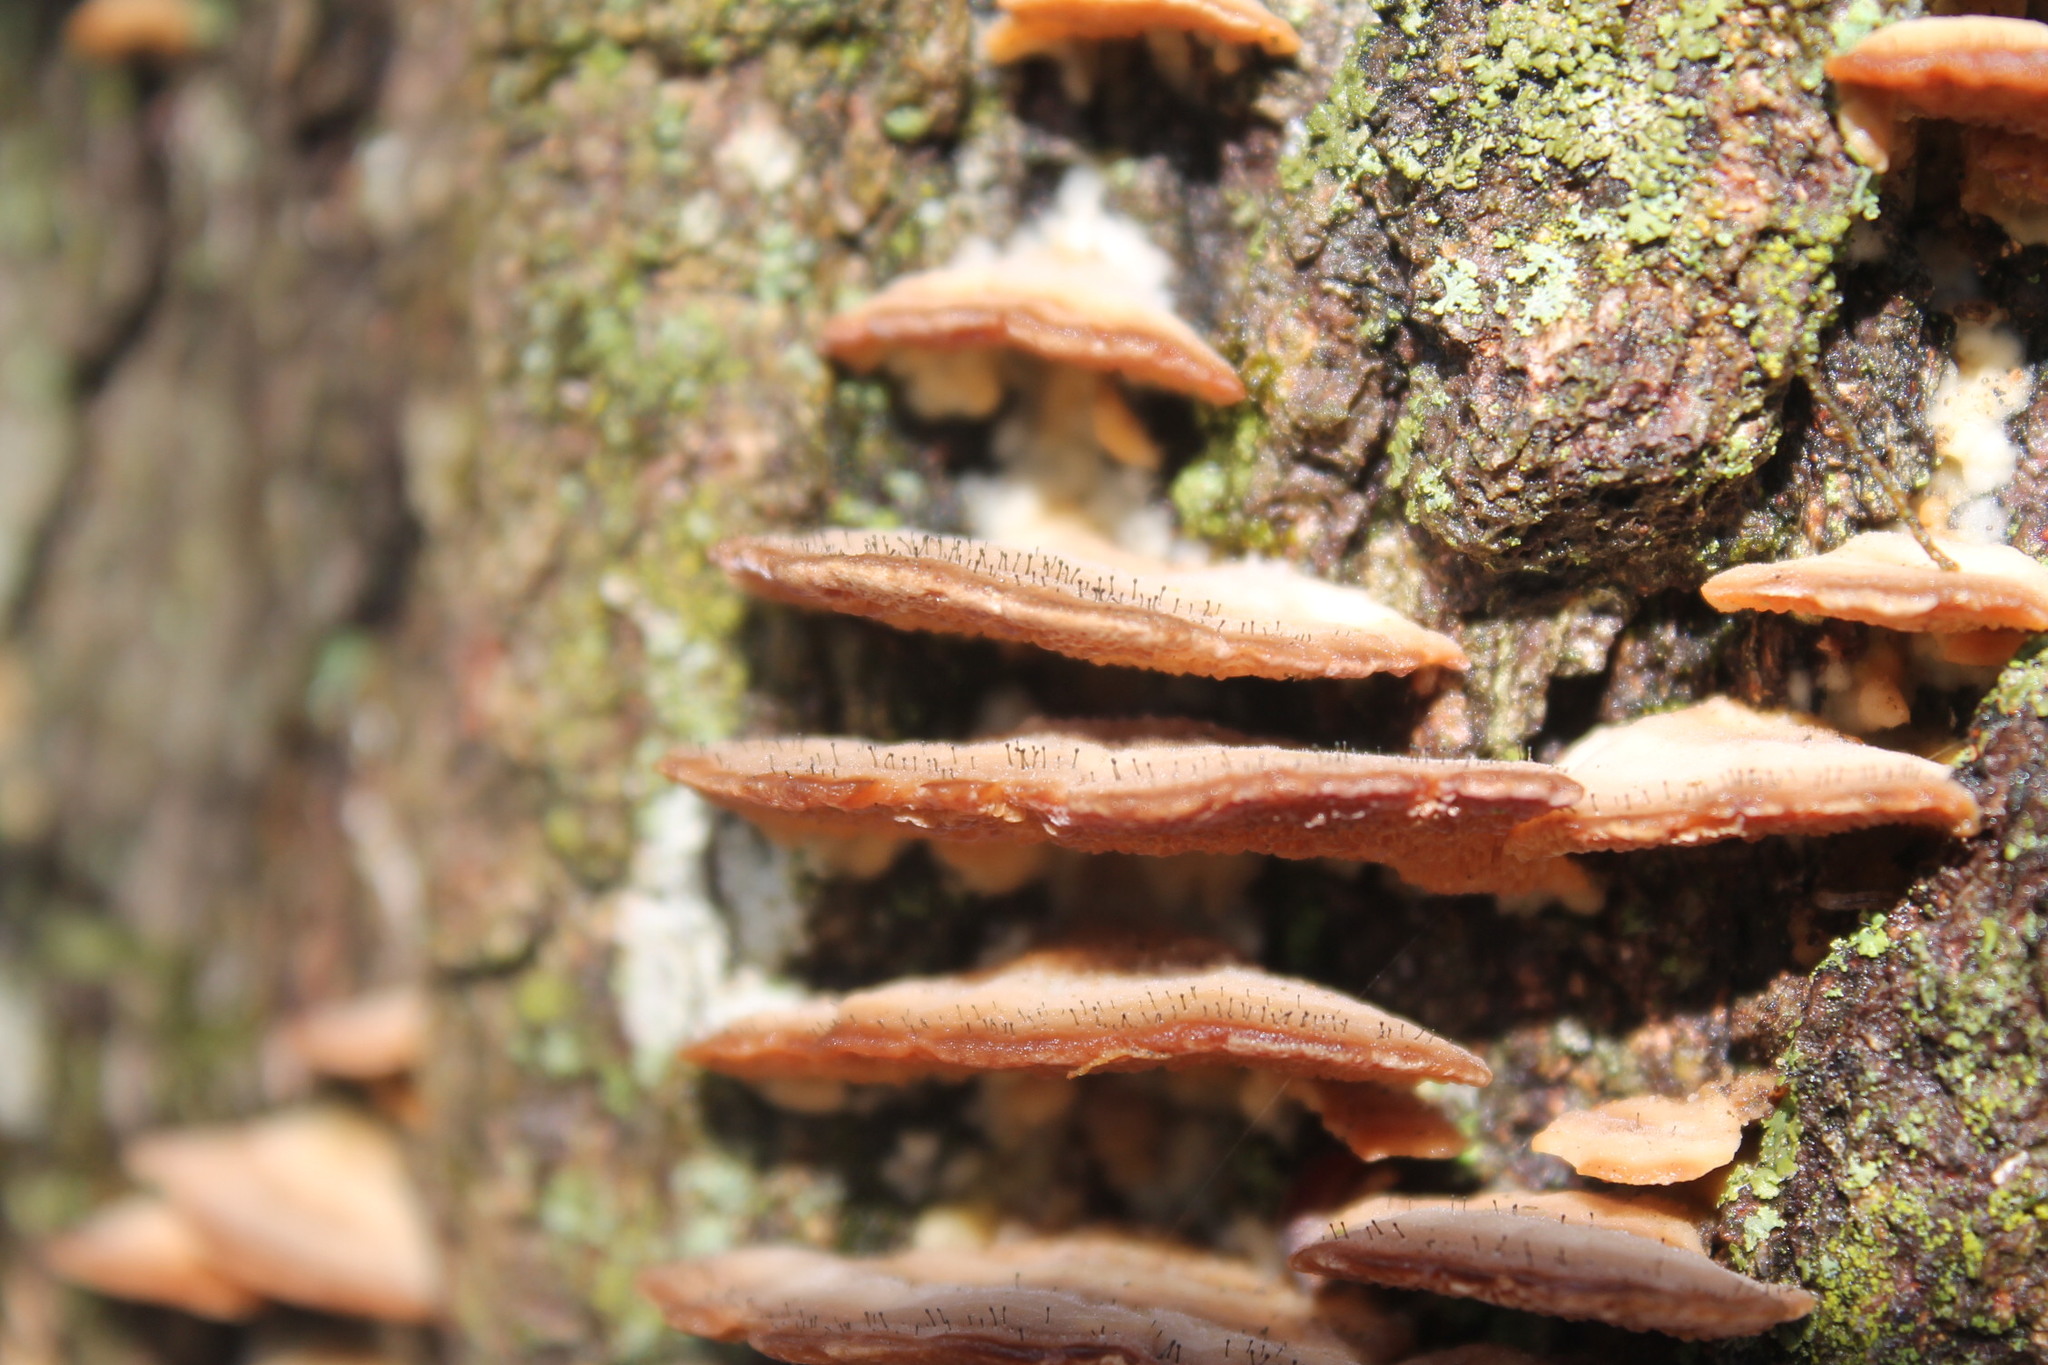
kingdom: Fungi
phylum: Ascomycota
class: Eurotiomycetes
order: Mycocaliciales
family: Mycocaliciaceae
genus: Phaeocalicium
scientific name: Phaeocalicium polyporaeum
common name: Fairy pins
